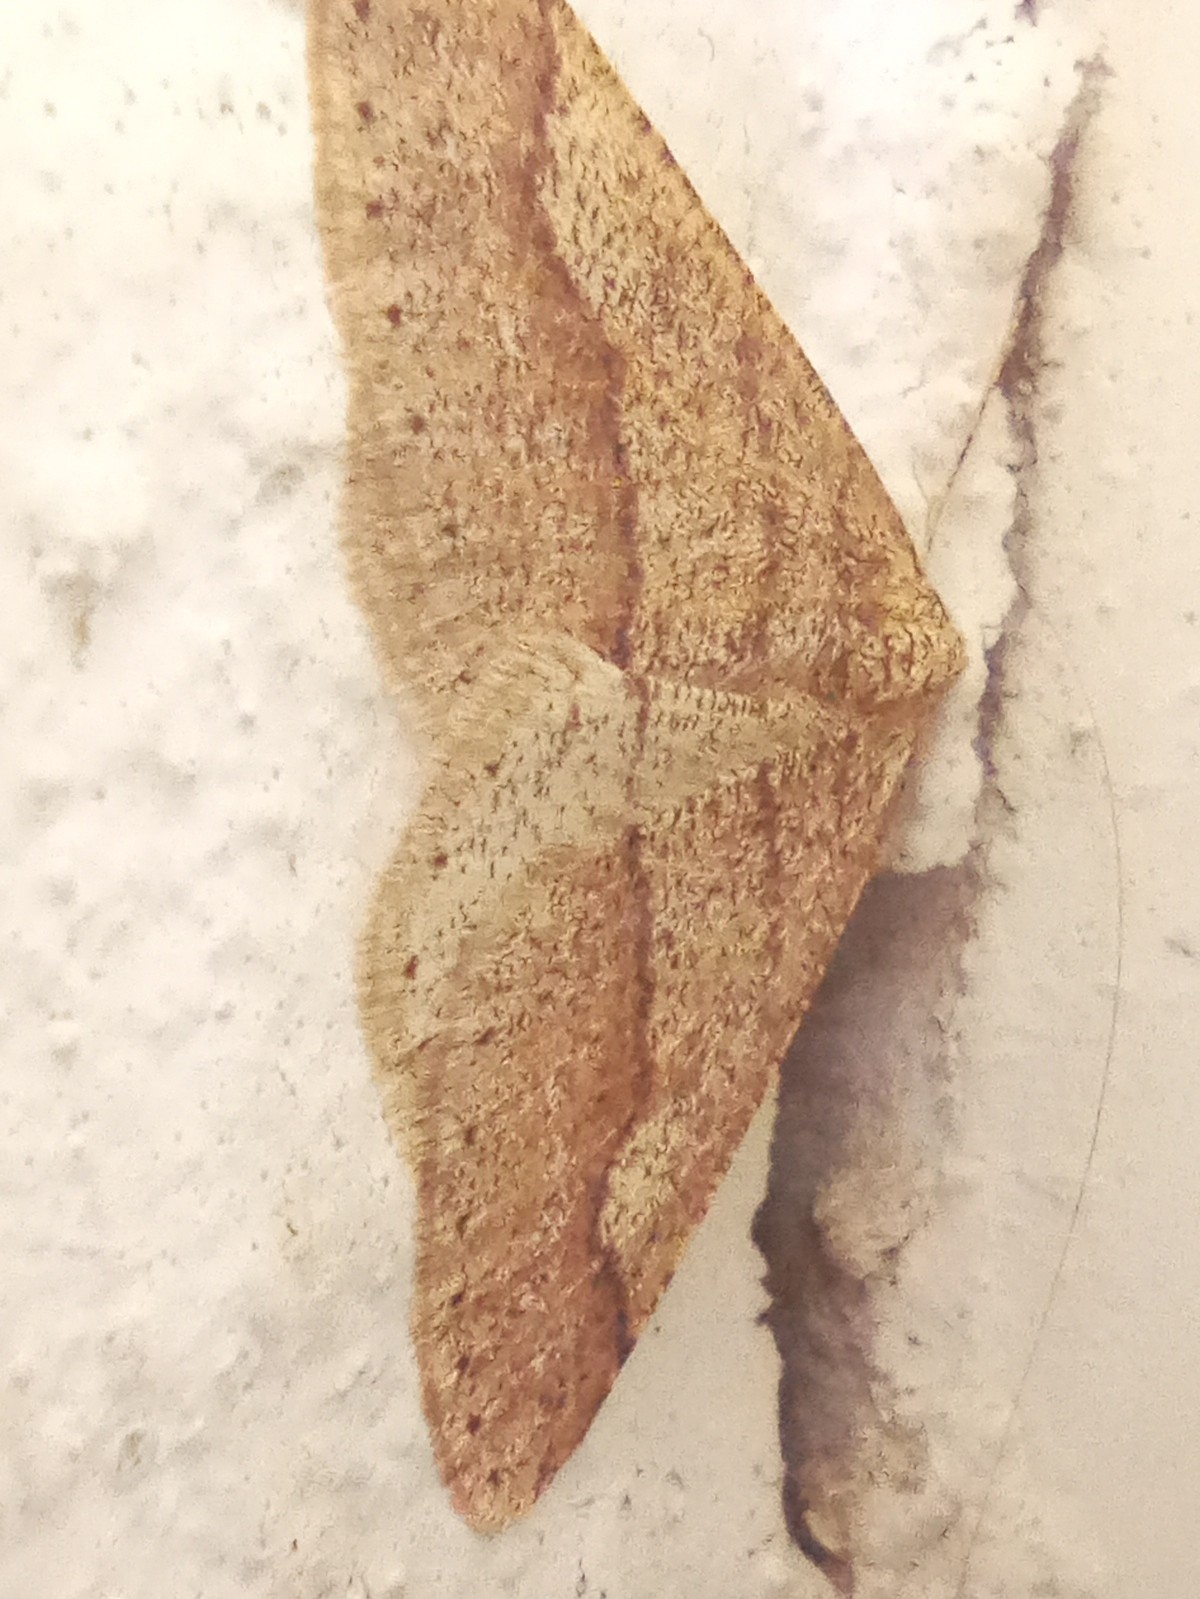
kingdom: Animalia
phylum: Arthropoda
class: Insecta
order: Lepidoptera
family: Geometridae
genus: Agriopis
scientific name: Agriopis marginaria
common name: Dotted border
